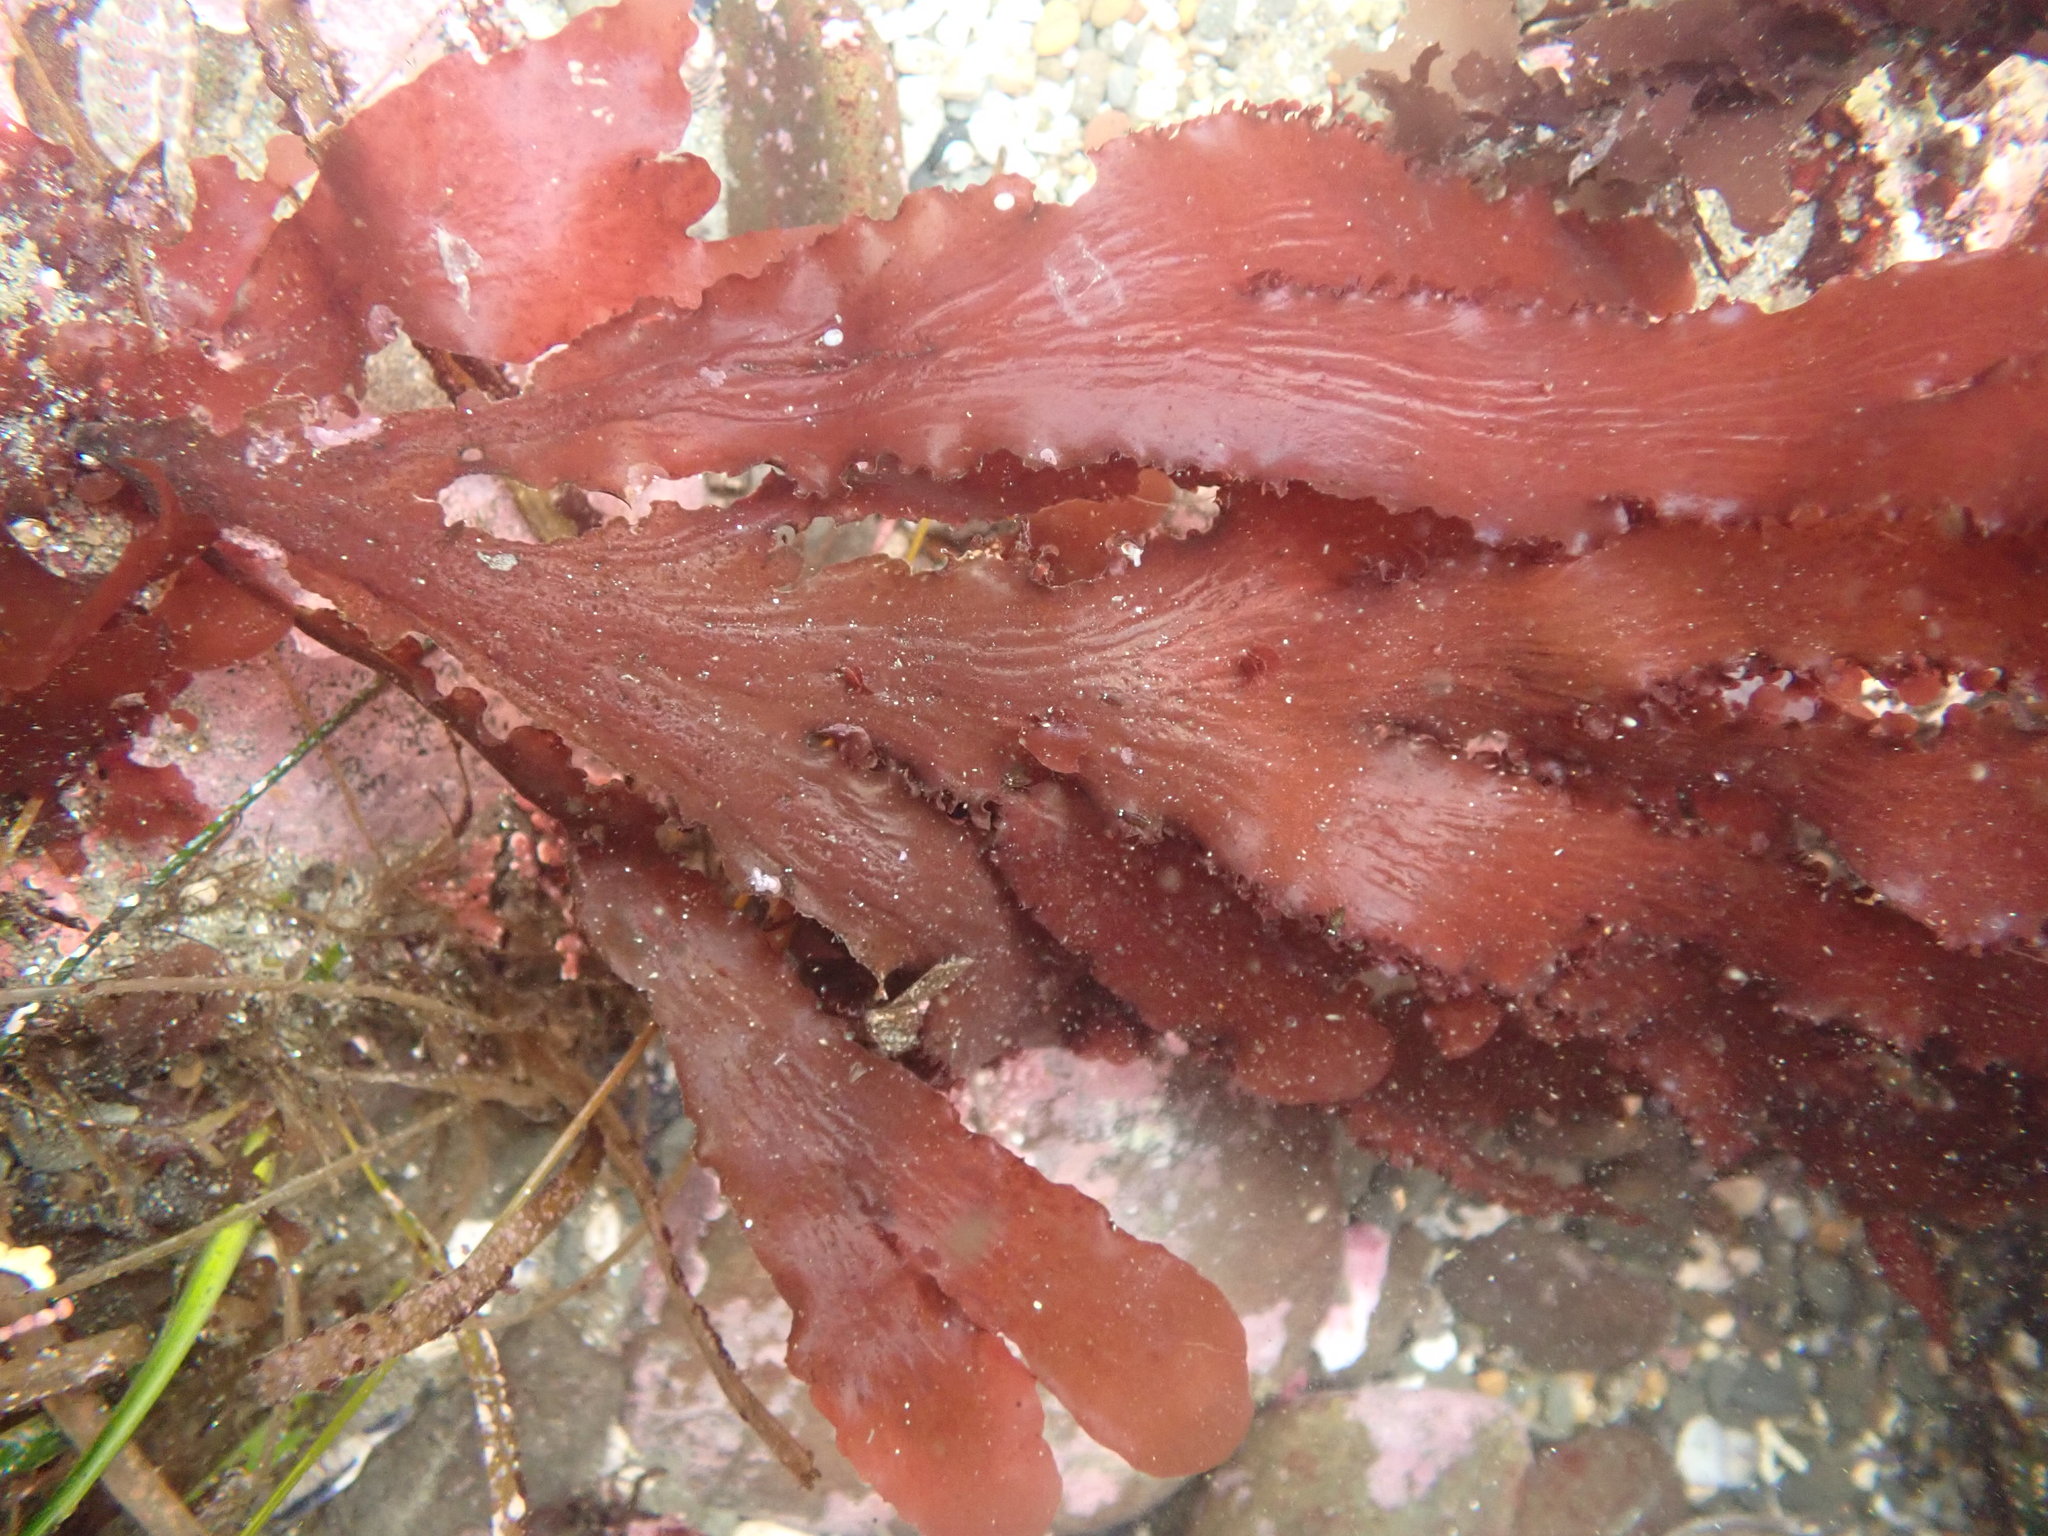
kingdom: Plantae
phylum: Rhodophyta
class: Florideophyceae
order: Ceramiales
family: Delesseriaceae
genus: Cryptopleura
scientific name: Cryptopleura ruprechtiana
